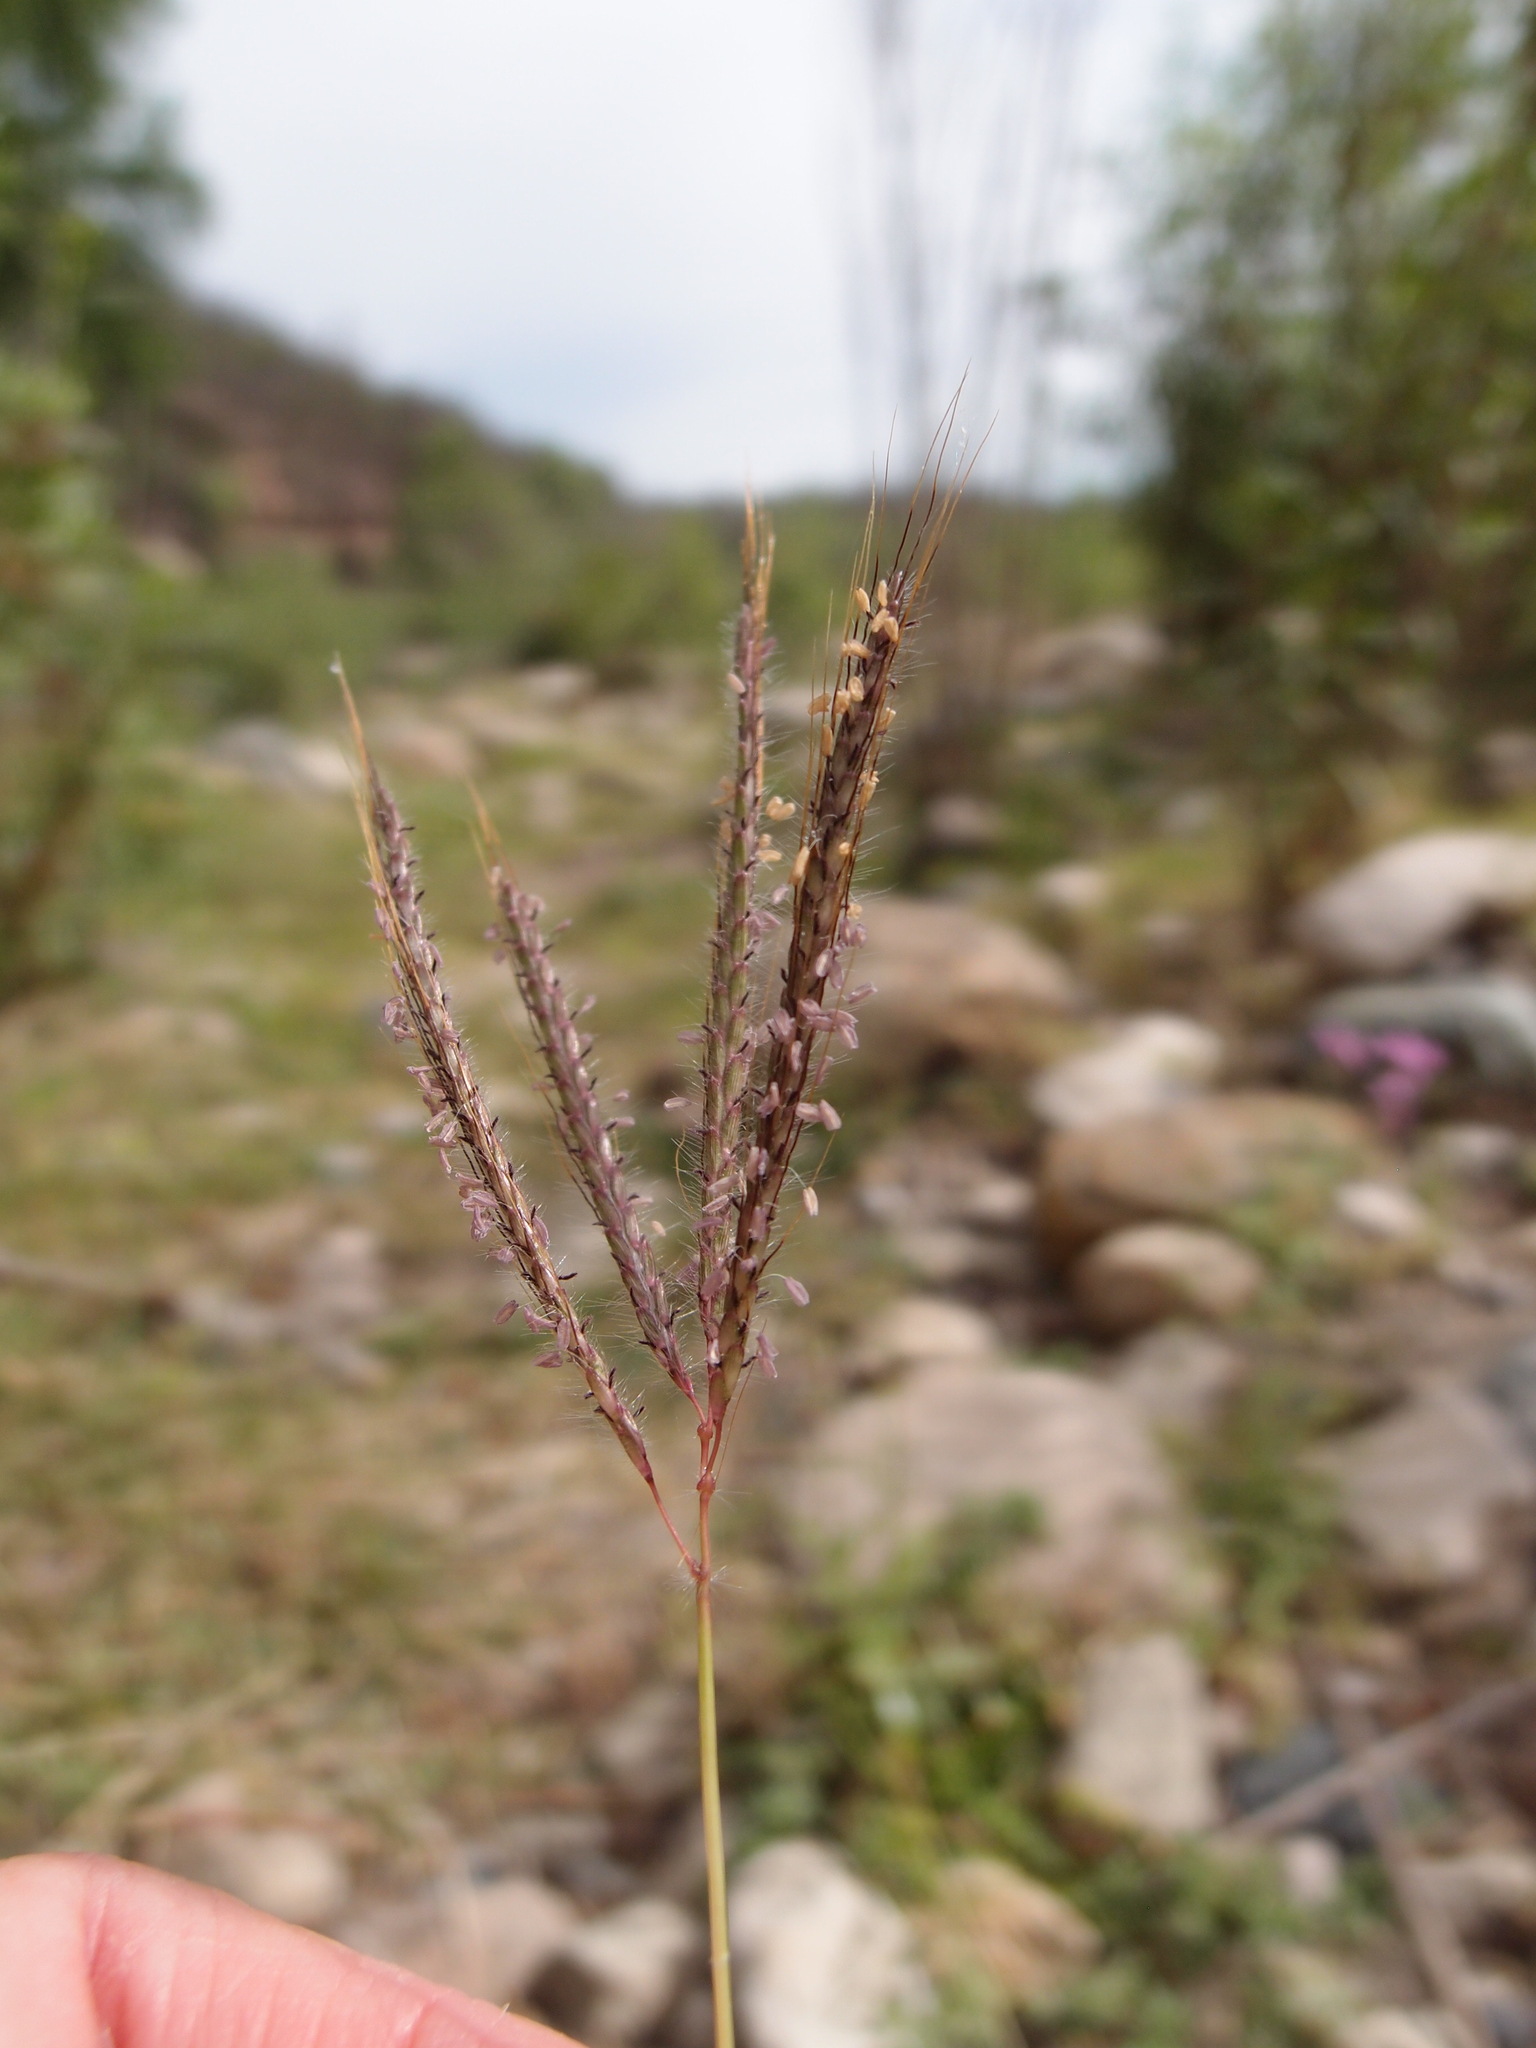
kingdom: Plantae
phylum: Tracheophyta
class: Liliopsida
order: Poales
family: Poaceae
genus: Dichanthium
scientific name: Dichanthium annulatum
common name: Kleberg's bluestem
